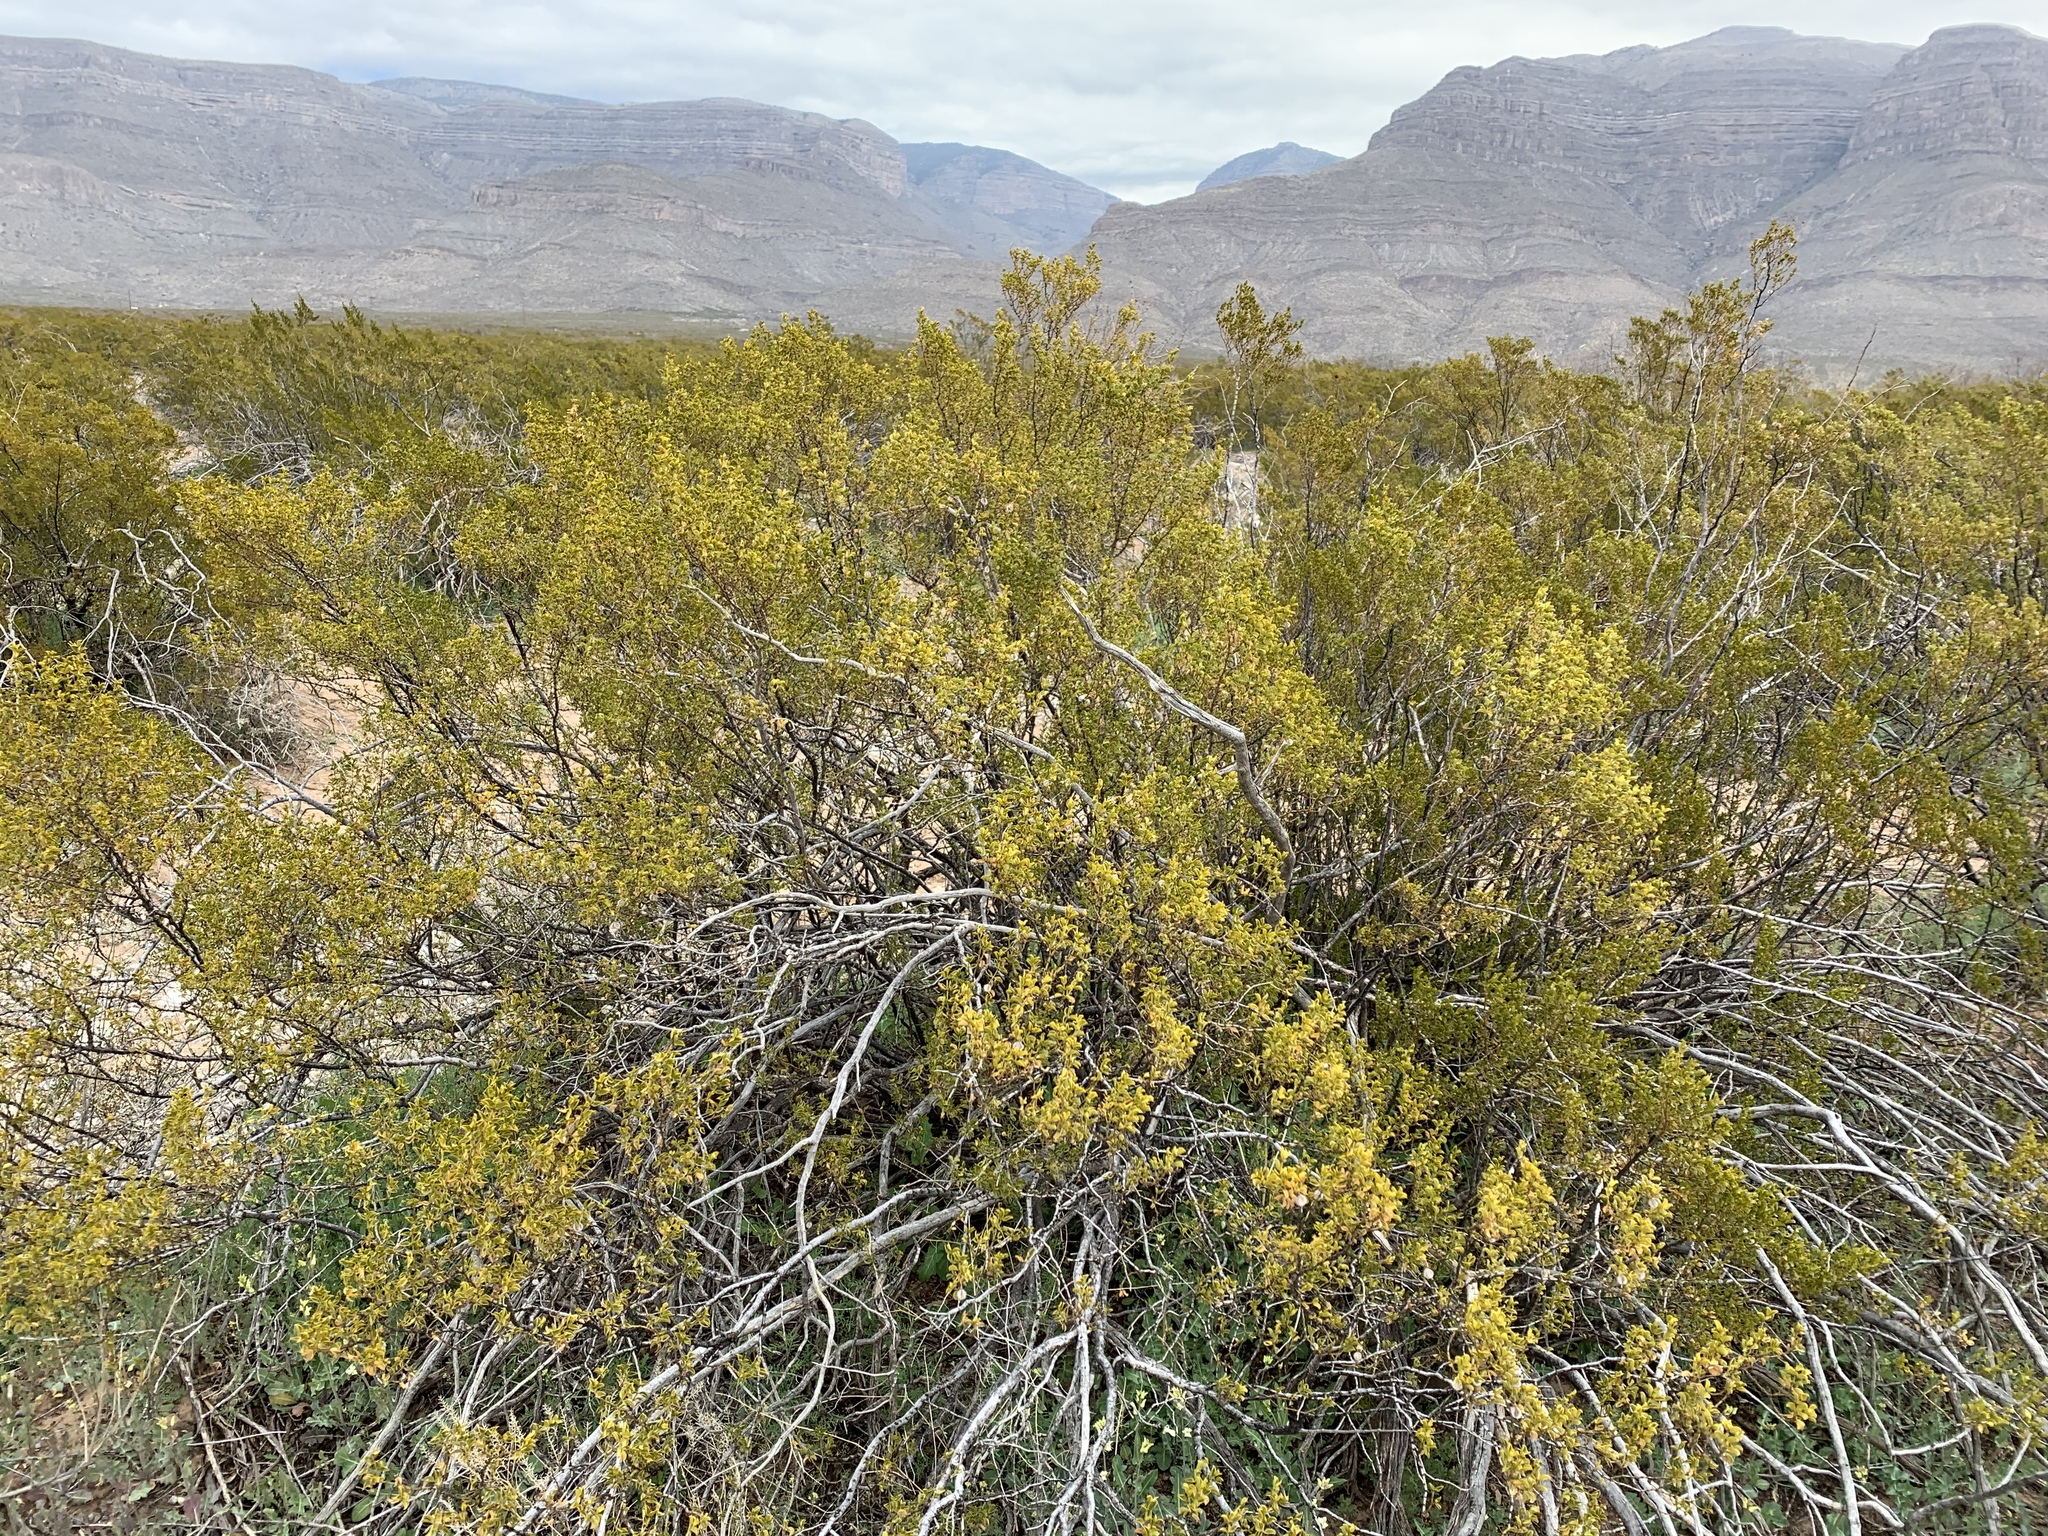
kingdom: Plantae
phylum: Tracheophyta
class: Magnoliopsida
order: Zygophyllales
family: Zygophyllaceae
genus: Larrea
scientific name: Larrea tridentata
